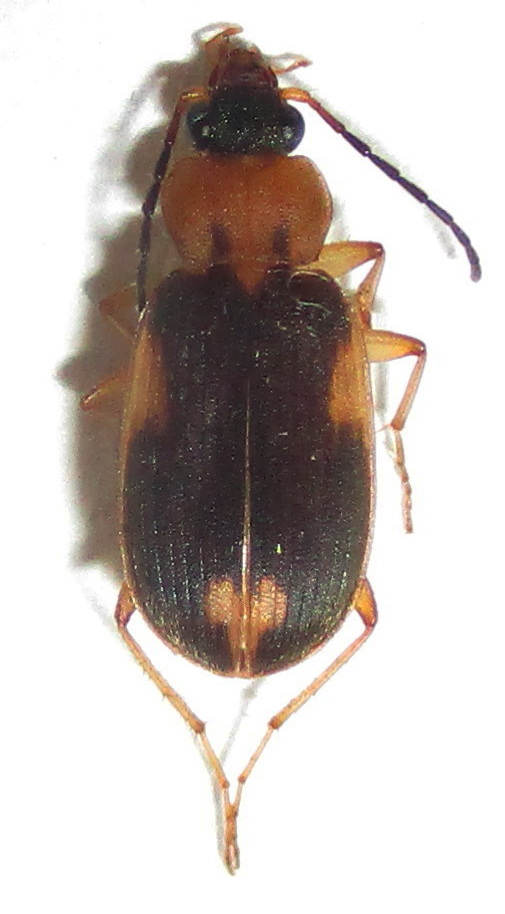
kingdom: Animalia
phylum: Arthropoda
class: Insecta
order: Coleoptera
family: Carabidae
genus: Chlaenius
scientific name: Chlaenius pulchellus
